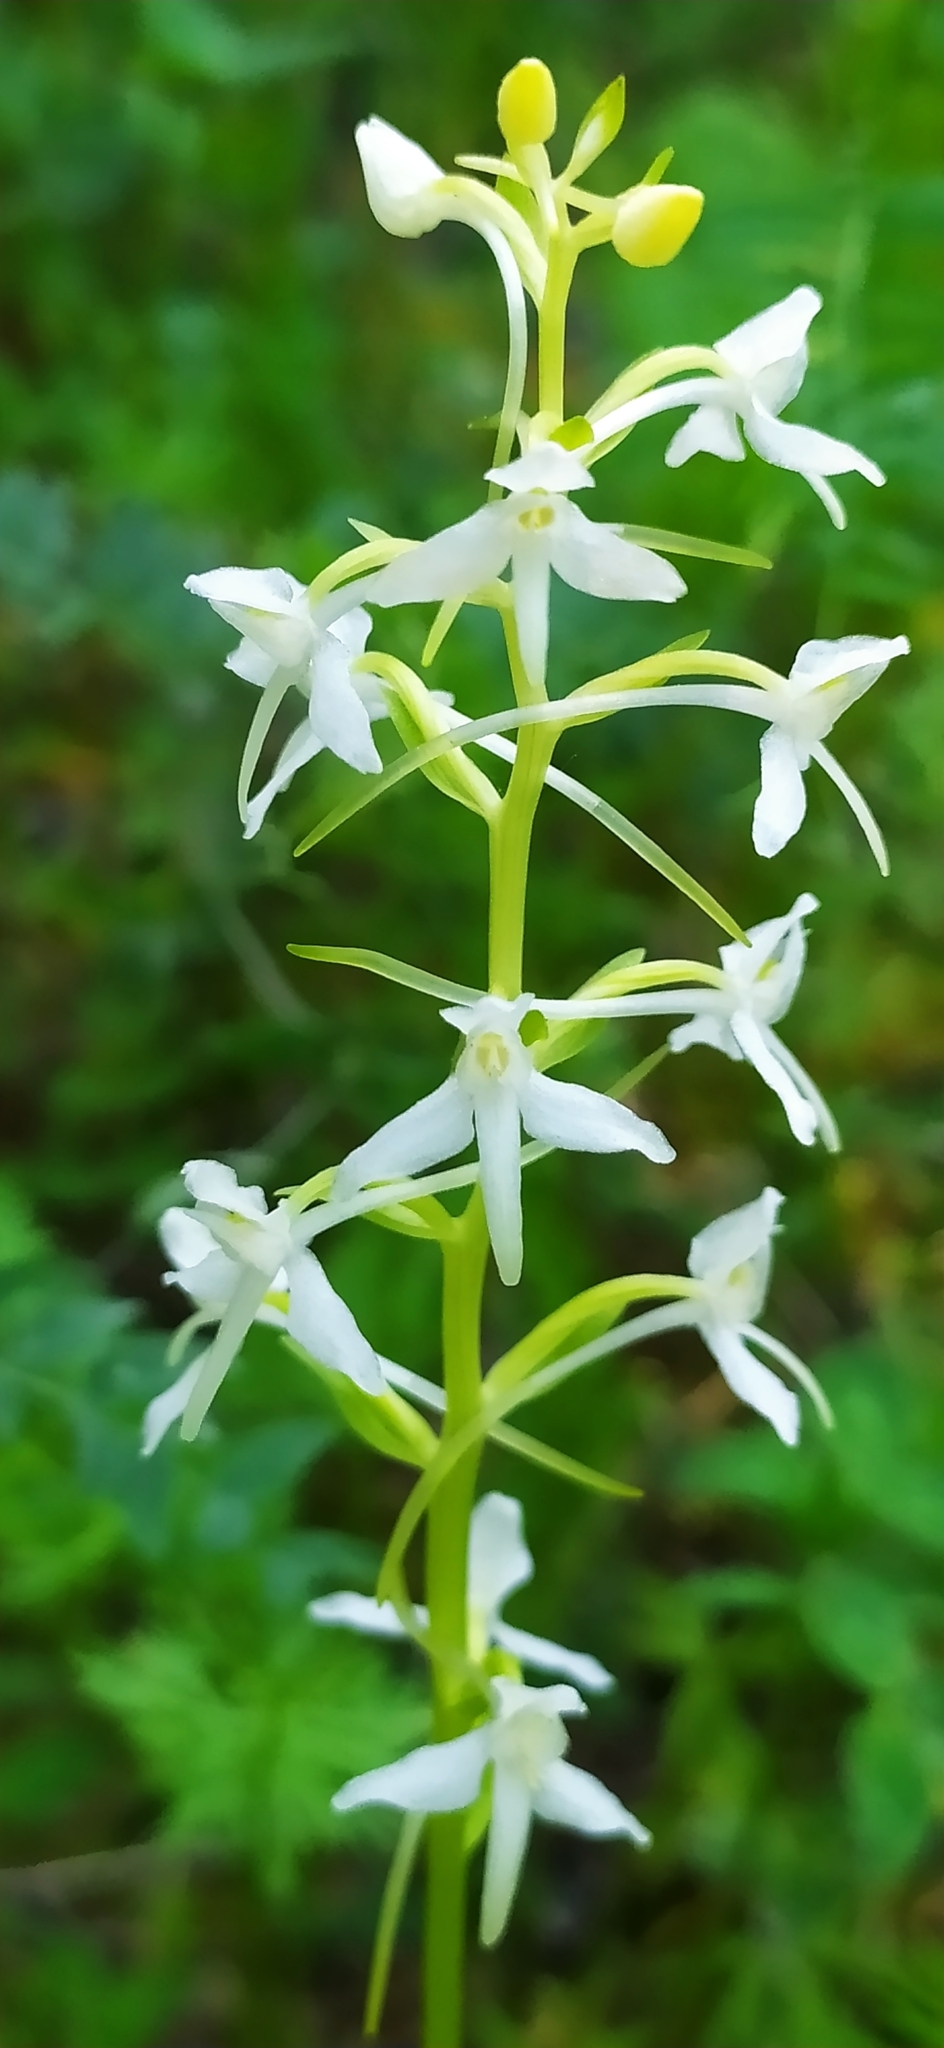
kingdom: Plantae
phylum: Tracheophyta
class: Liliopsida
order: Asparagales
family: Orchidaceae
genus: Platanthera
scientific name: Platanthera bifolia
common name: Lesser butterfly-orchid
